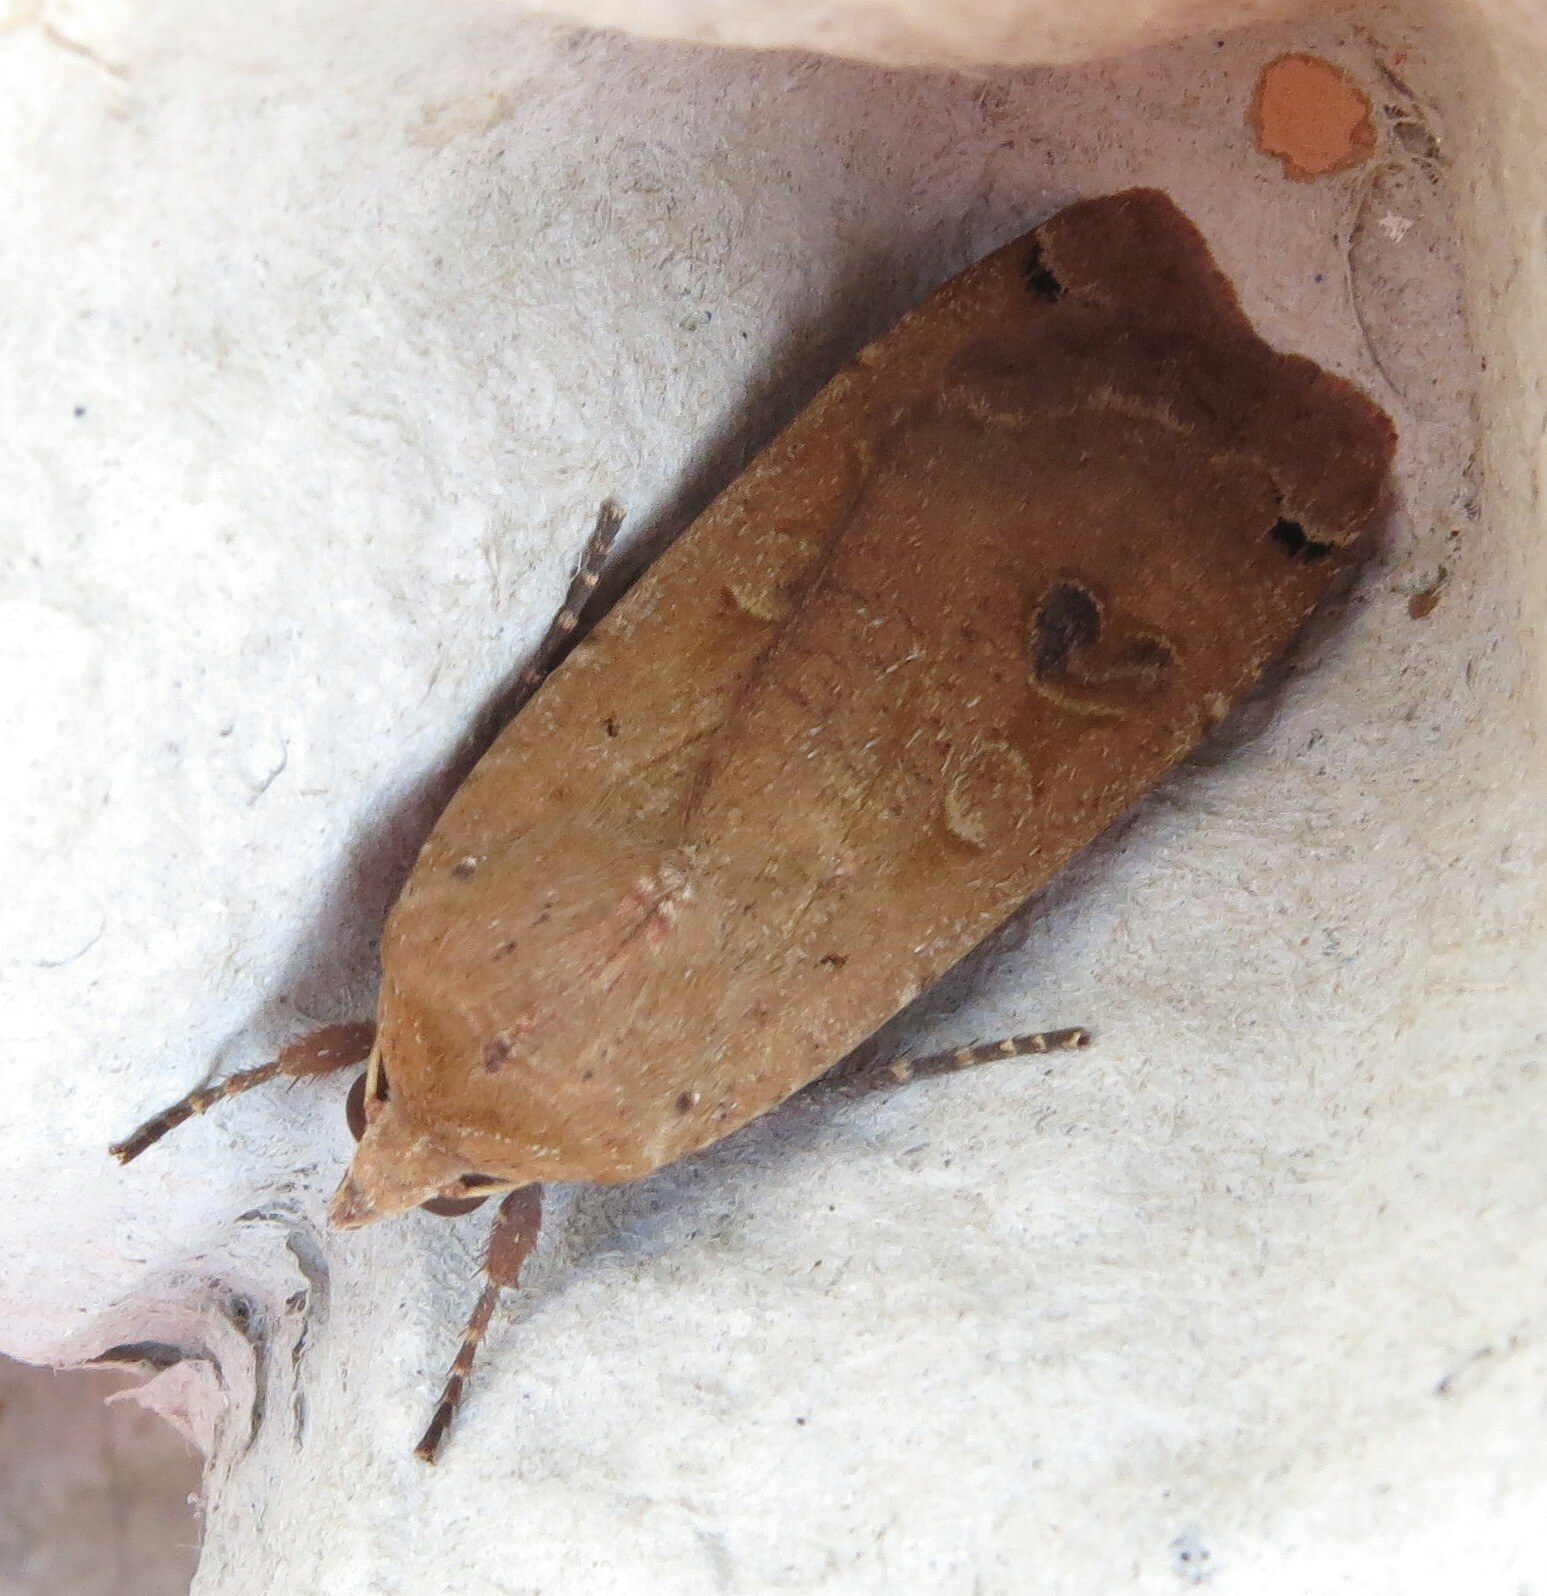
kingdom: Animalia
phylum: Arthropoda
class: Insecta
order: Lepidoptera
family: Noctuidae
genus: Noctua
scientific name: Noctua pronuba
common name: Large yellow underwing
